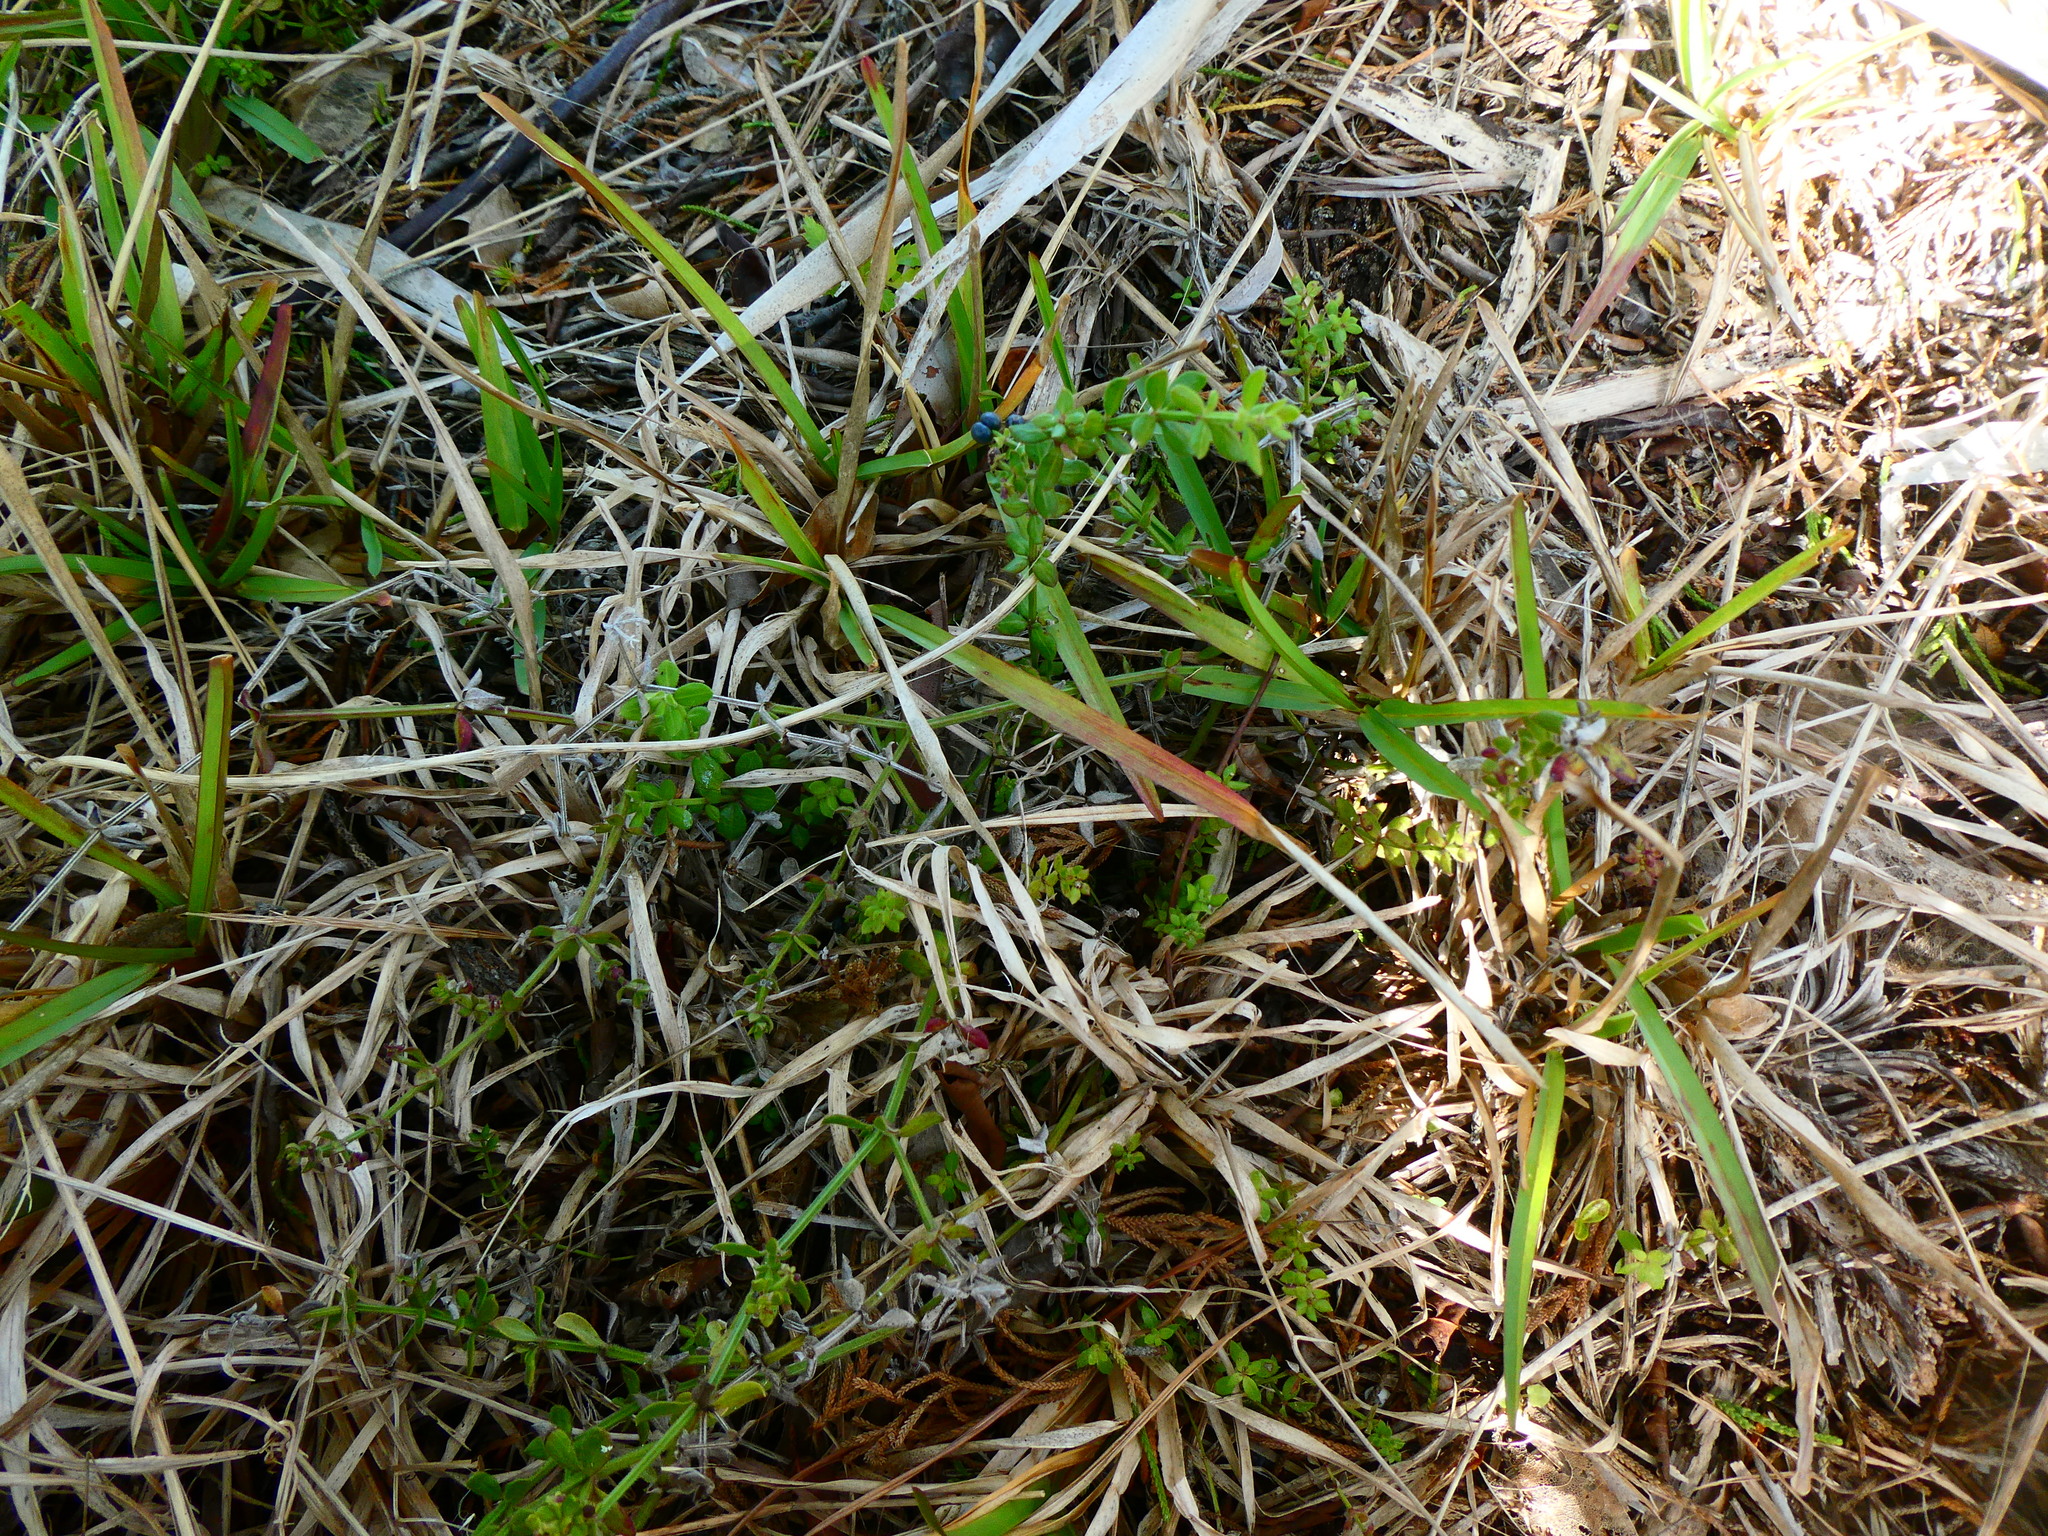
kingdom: Plantae
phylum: Tracheophyta
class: Magnoliopsida
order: Gentianales
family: Rubiaceae
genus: Galium
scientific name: Galium bermudense
